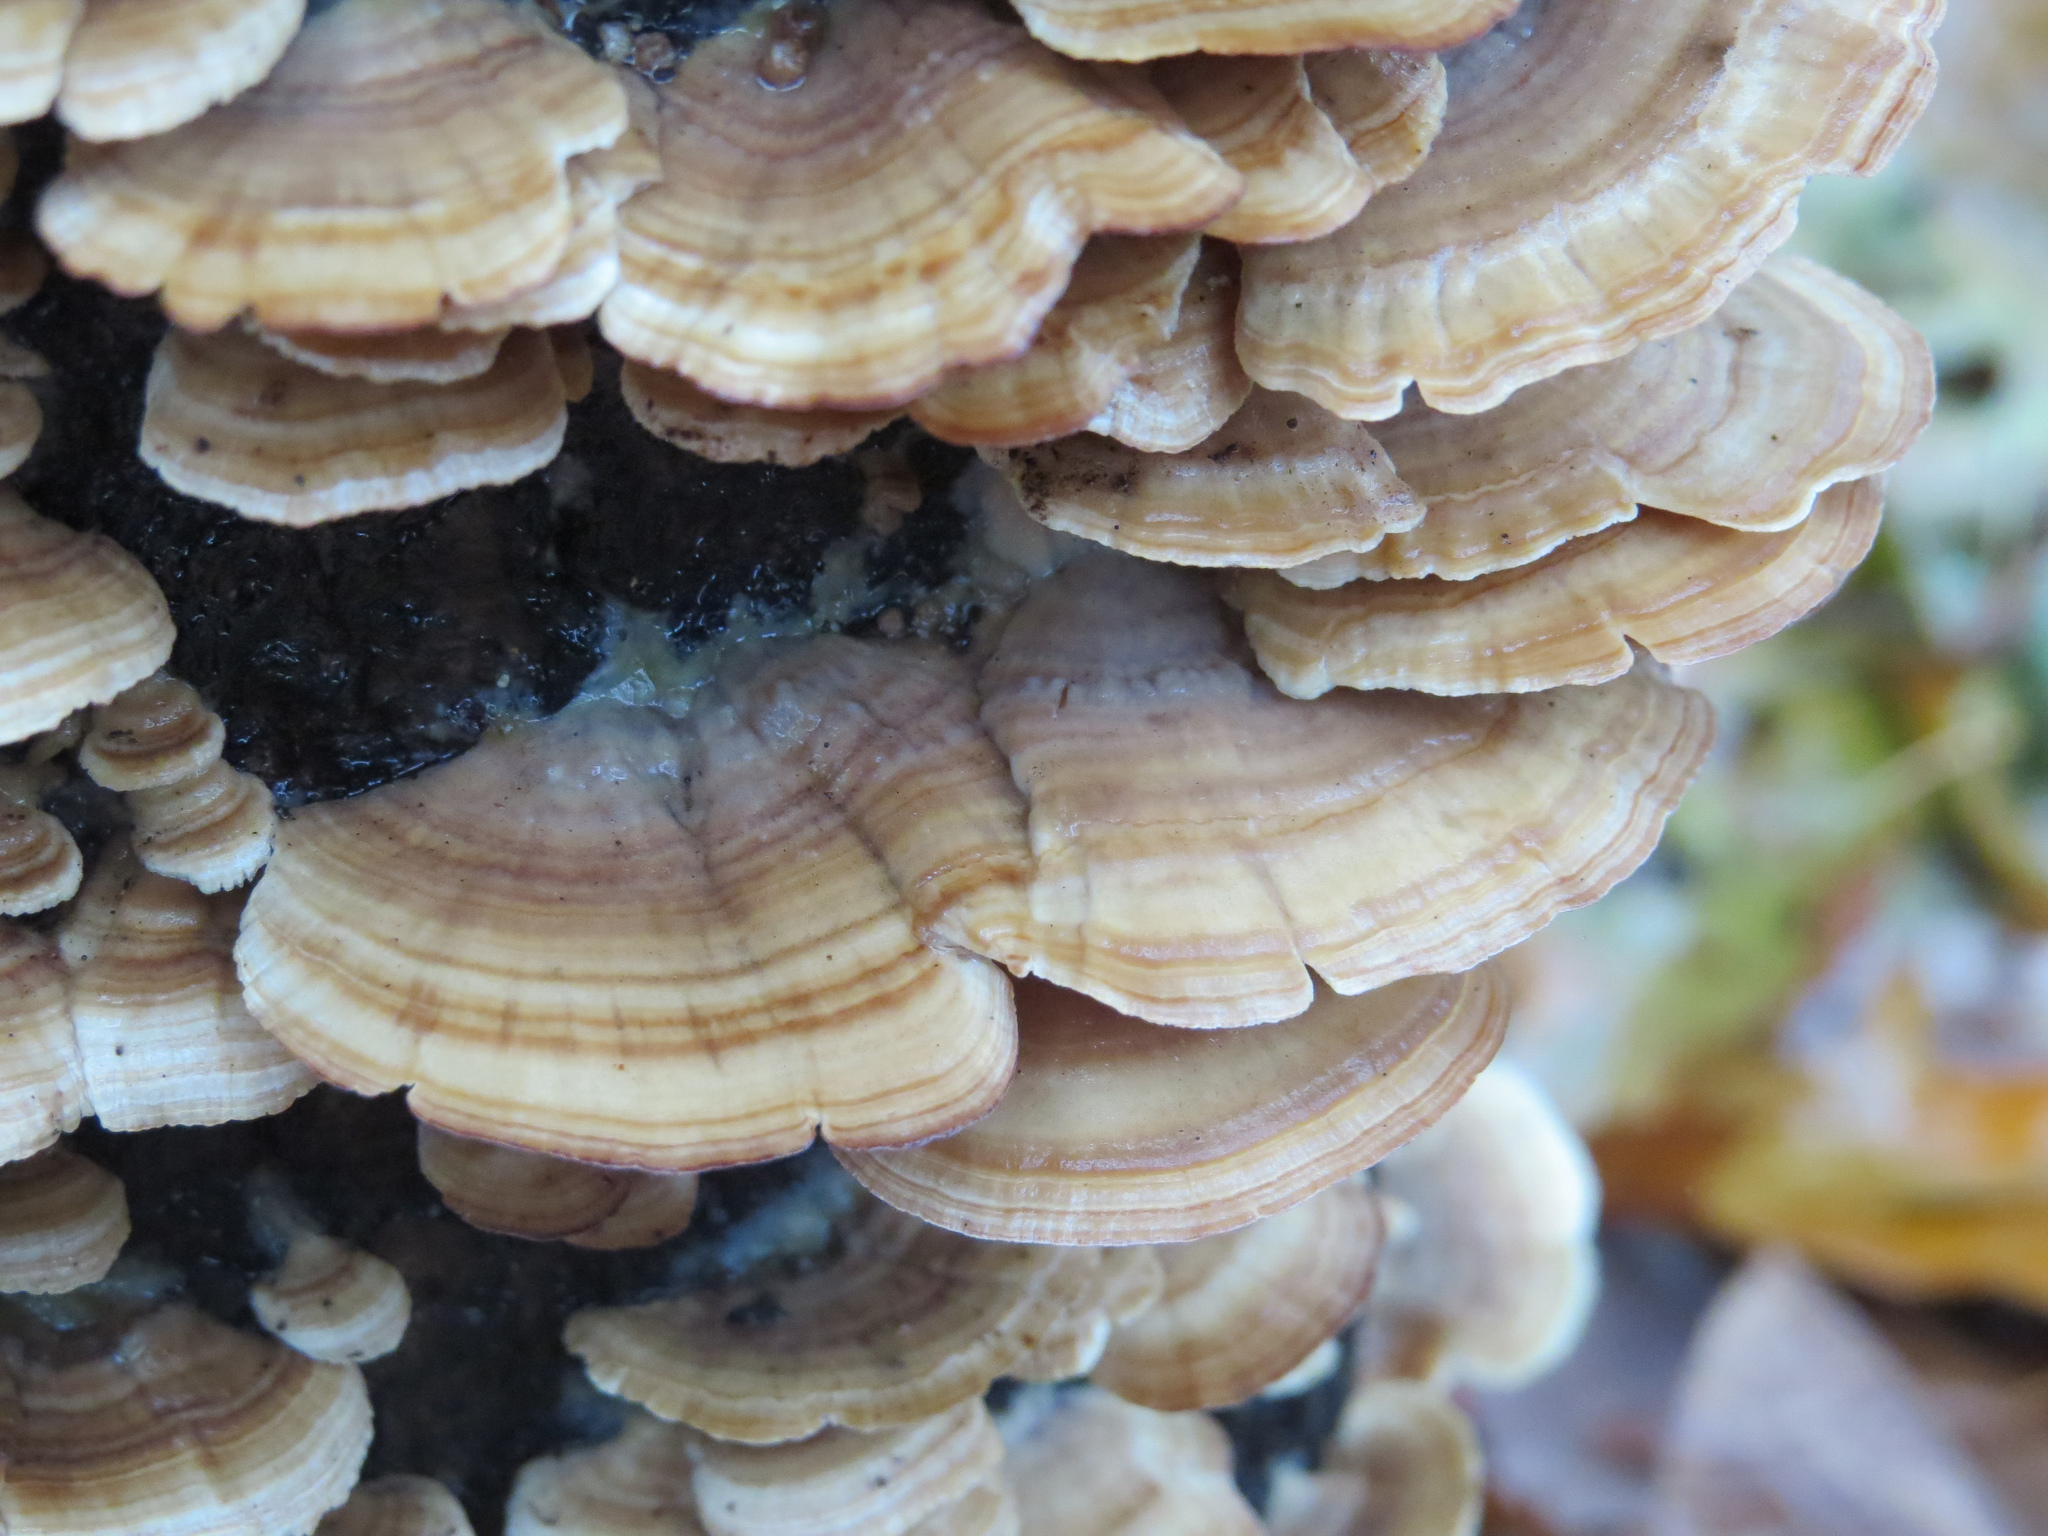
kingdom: Fungi
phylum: Basidiomycota
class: Agaricomycetes
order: Hymenochaetales
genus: Trichaptum
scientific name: Trichaptum biforme
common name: Violet-toothed polypore
